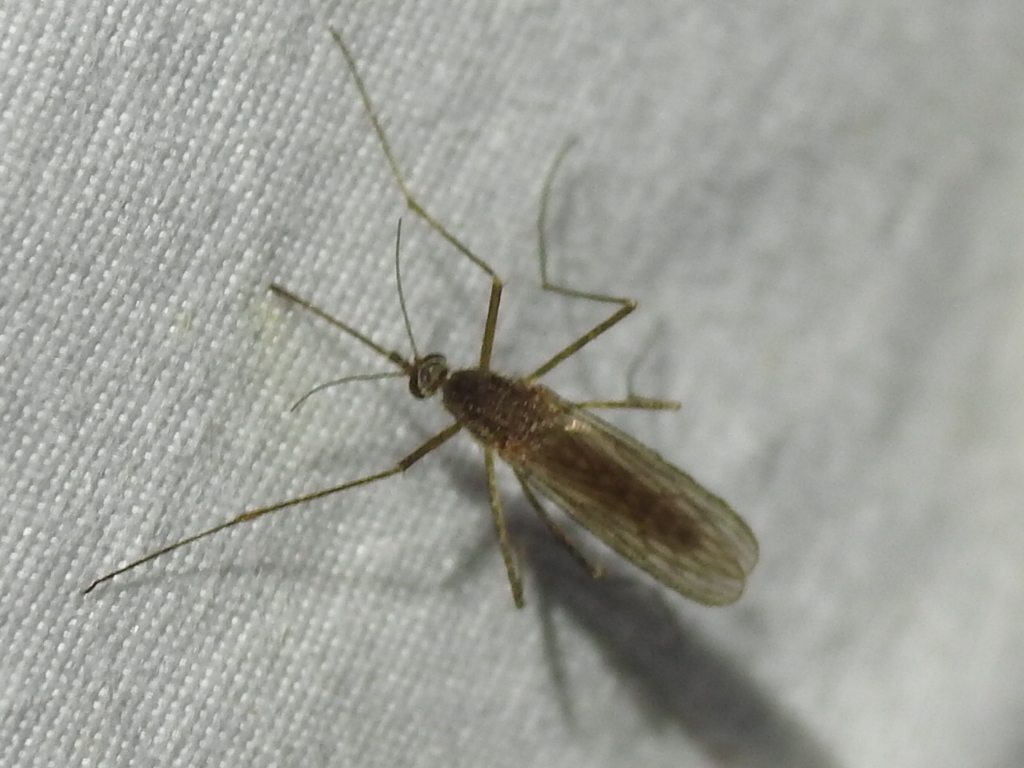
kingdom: Animalia
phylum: Arthropoda
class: Insecta
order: Diptera
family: Culicidae
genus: Culiseta
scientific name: Culiseta inornata
